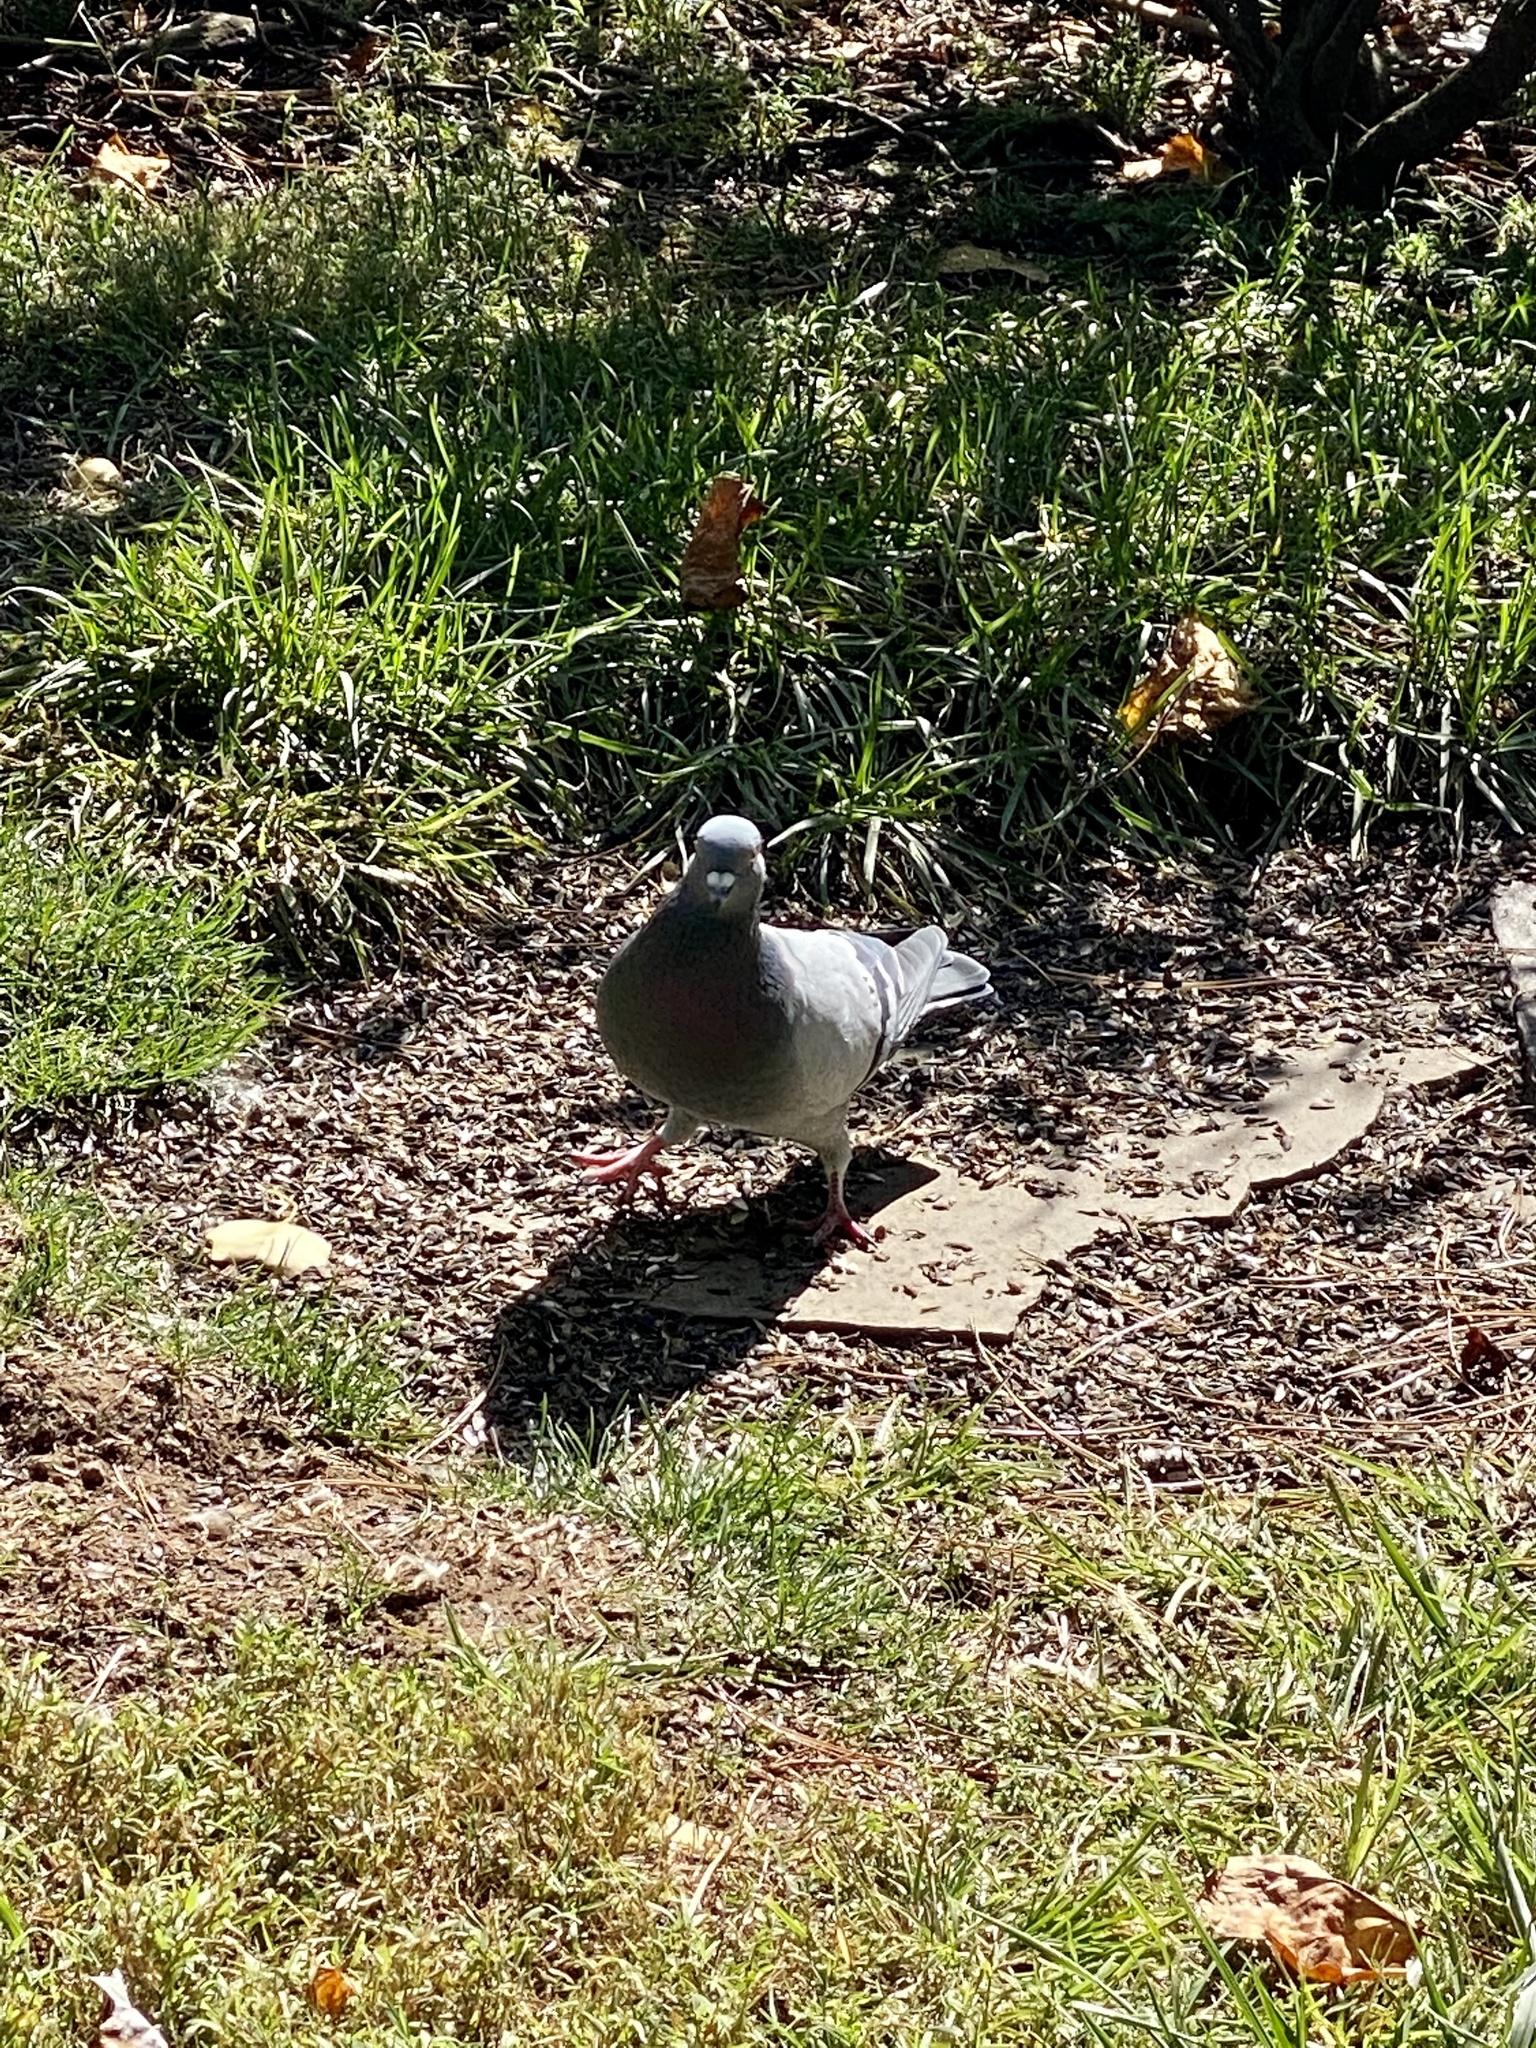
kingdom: Animalia
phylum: Chordata
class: Aves
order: Columbiformes
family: Columbidae
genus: Columba
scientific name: Columba livia
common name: Rock pigeon
